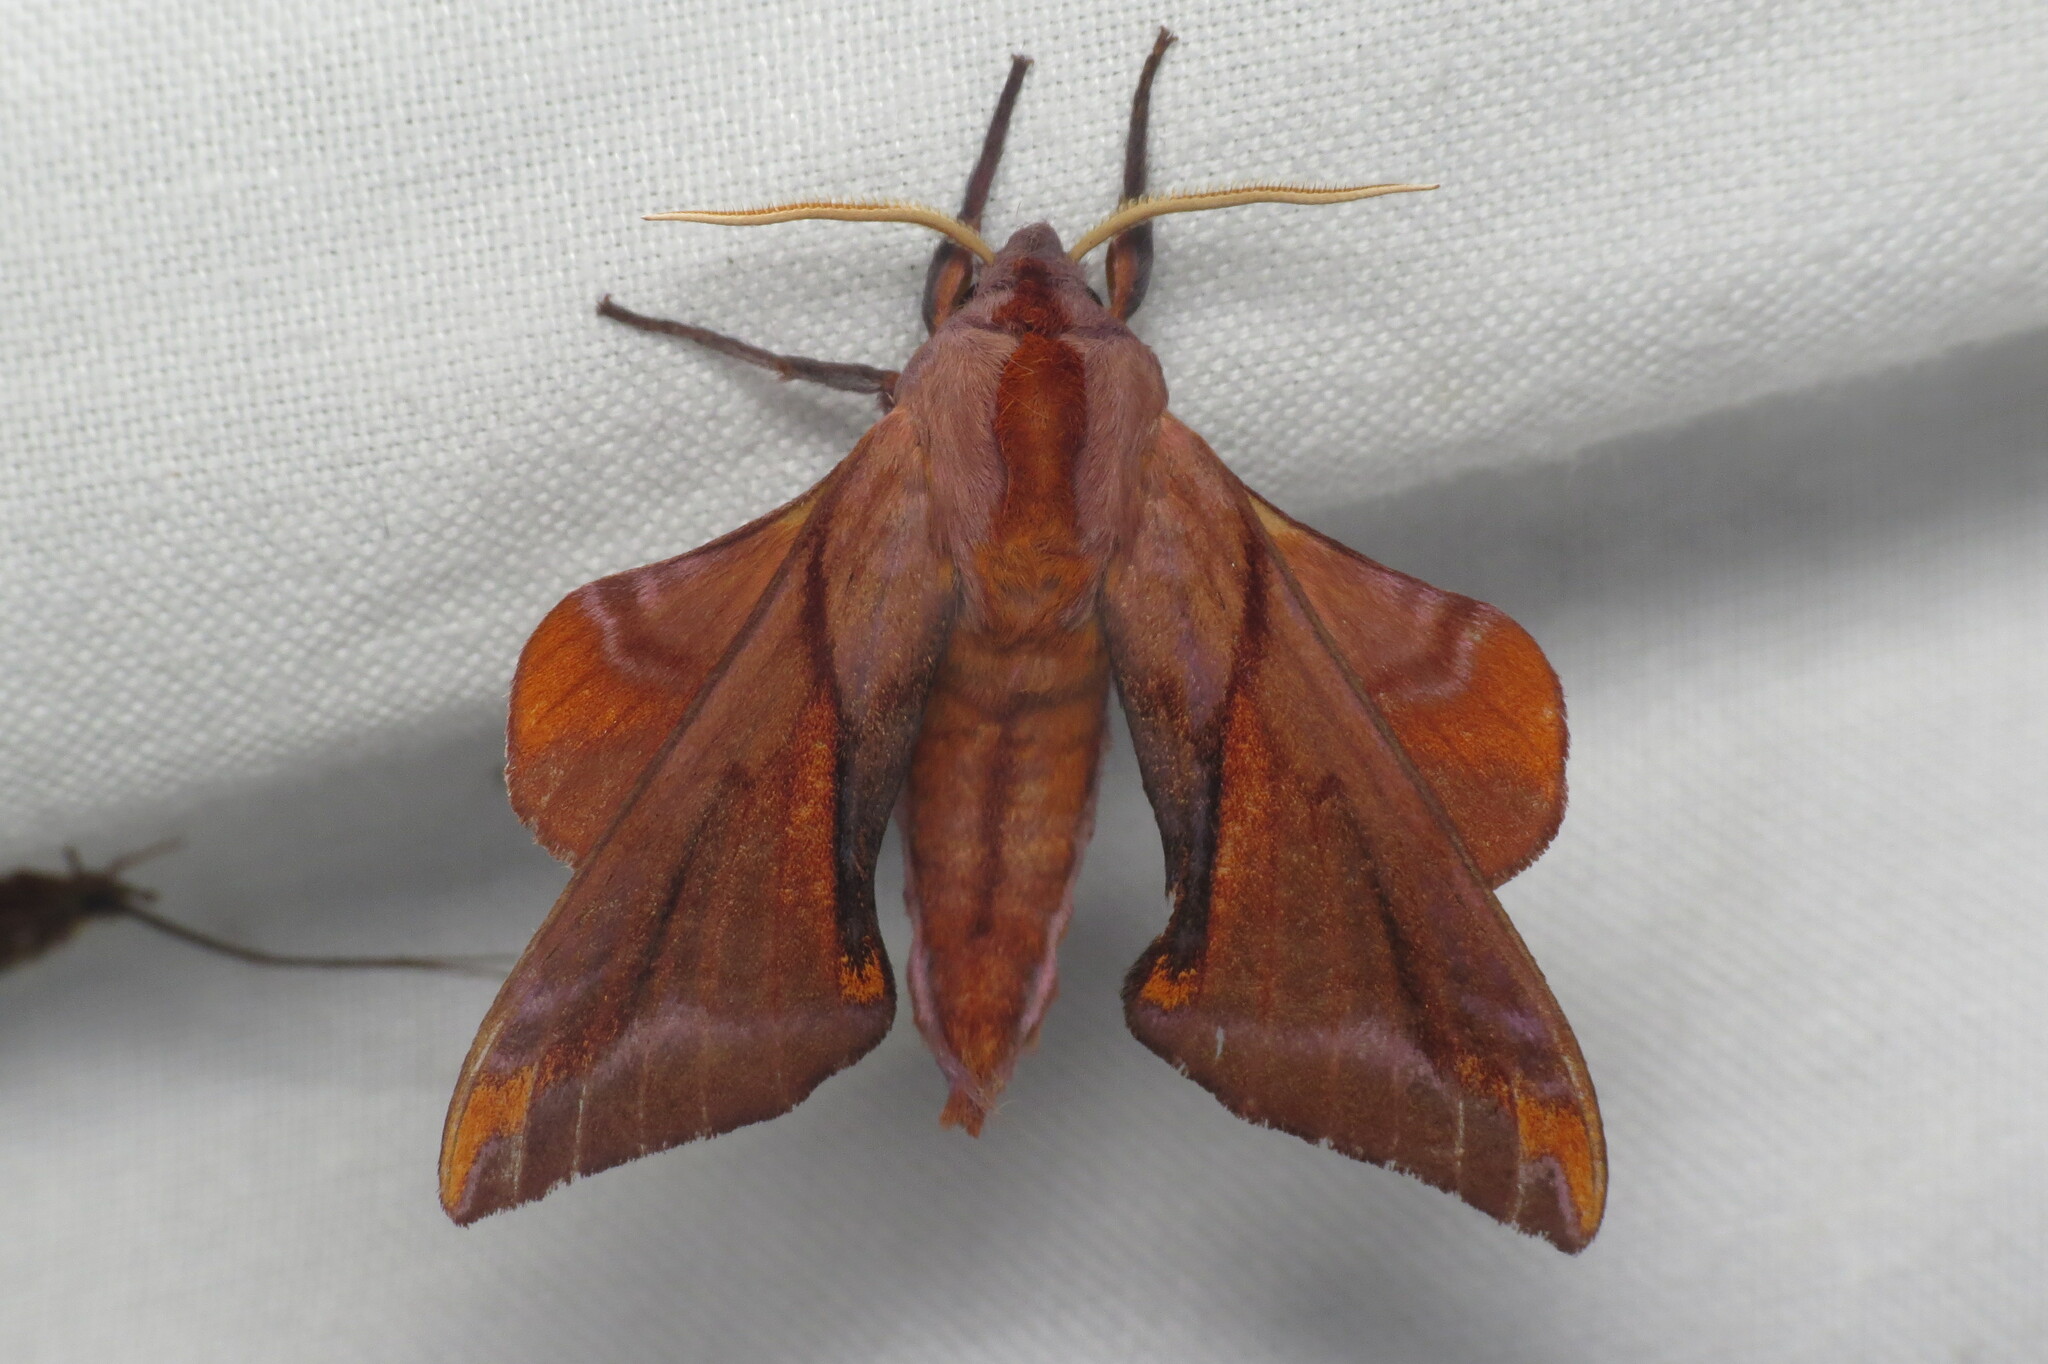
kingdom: Animalia
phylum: Arthropoda
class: Insecta
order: Lepidoptera
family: Sphingidae
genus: Paonias
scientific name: Paonias astylus
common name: Huckleberry sphinx
